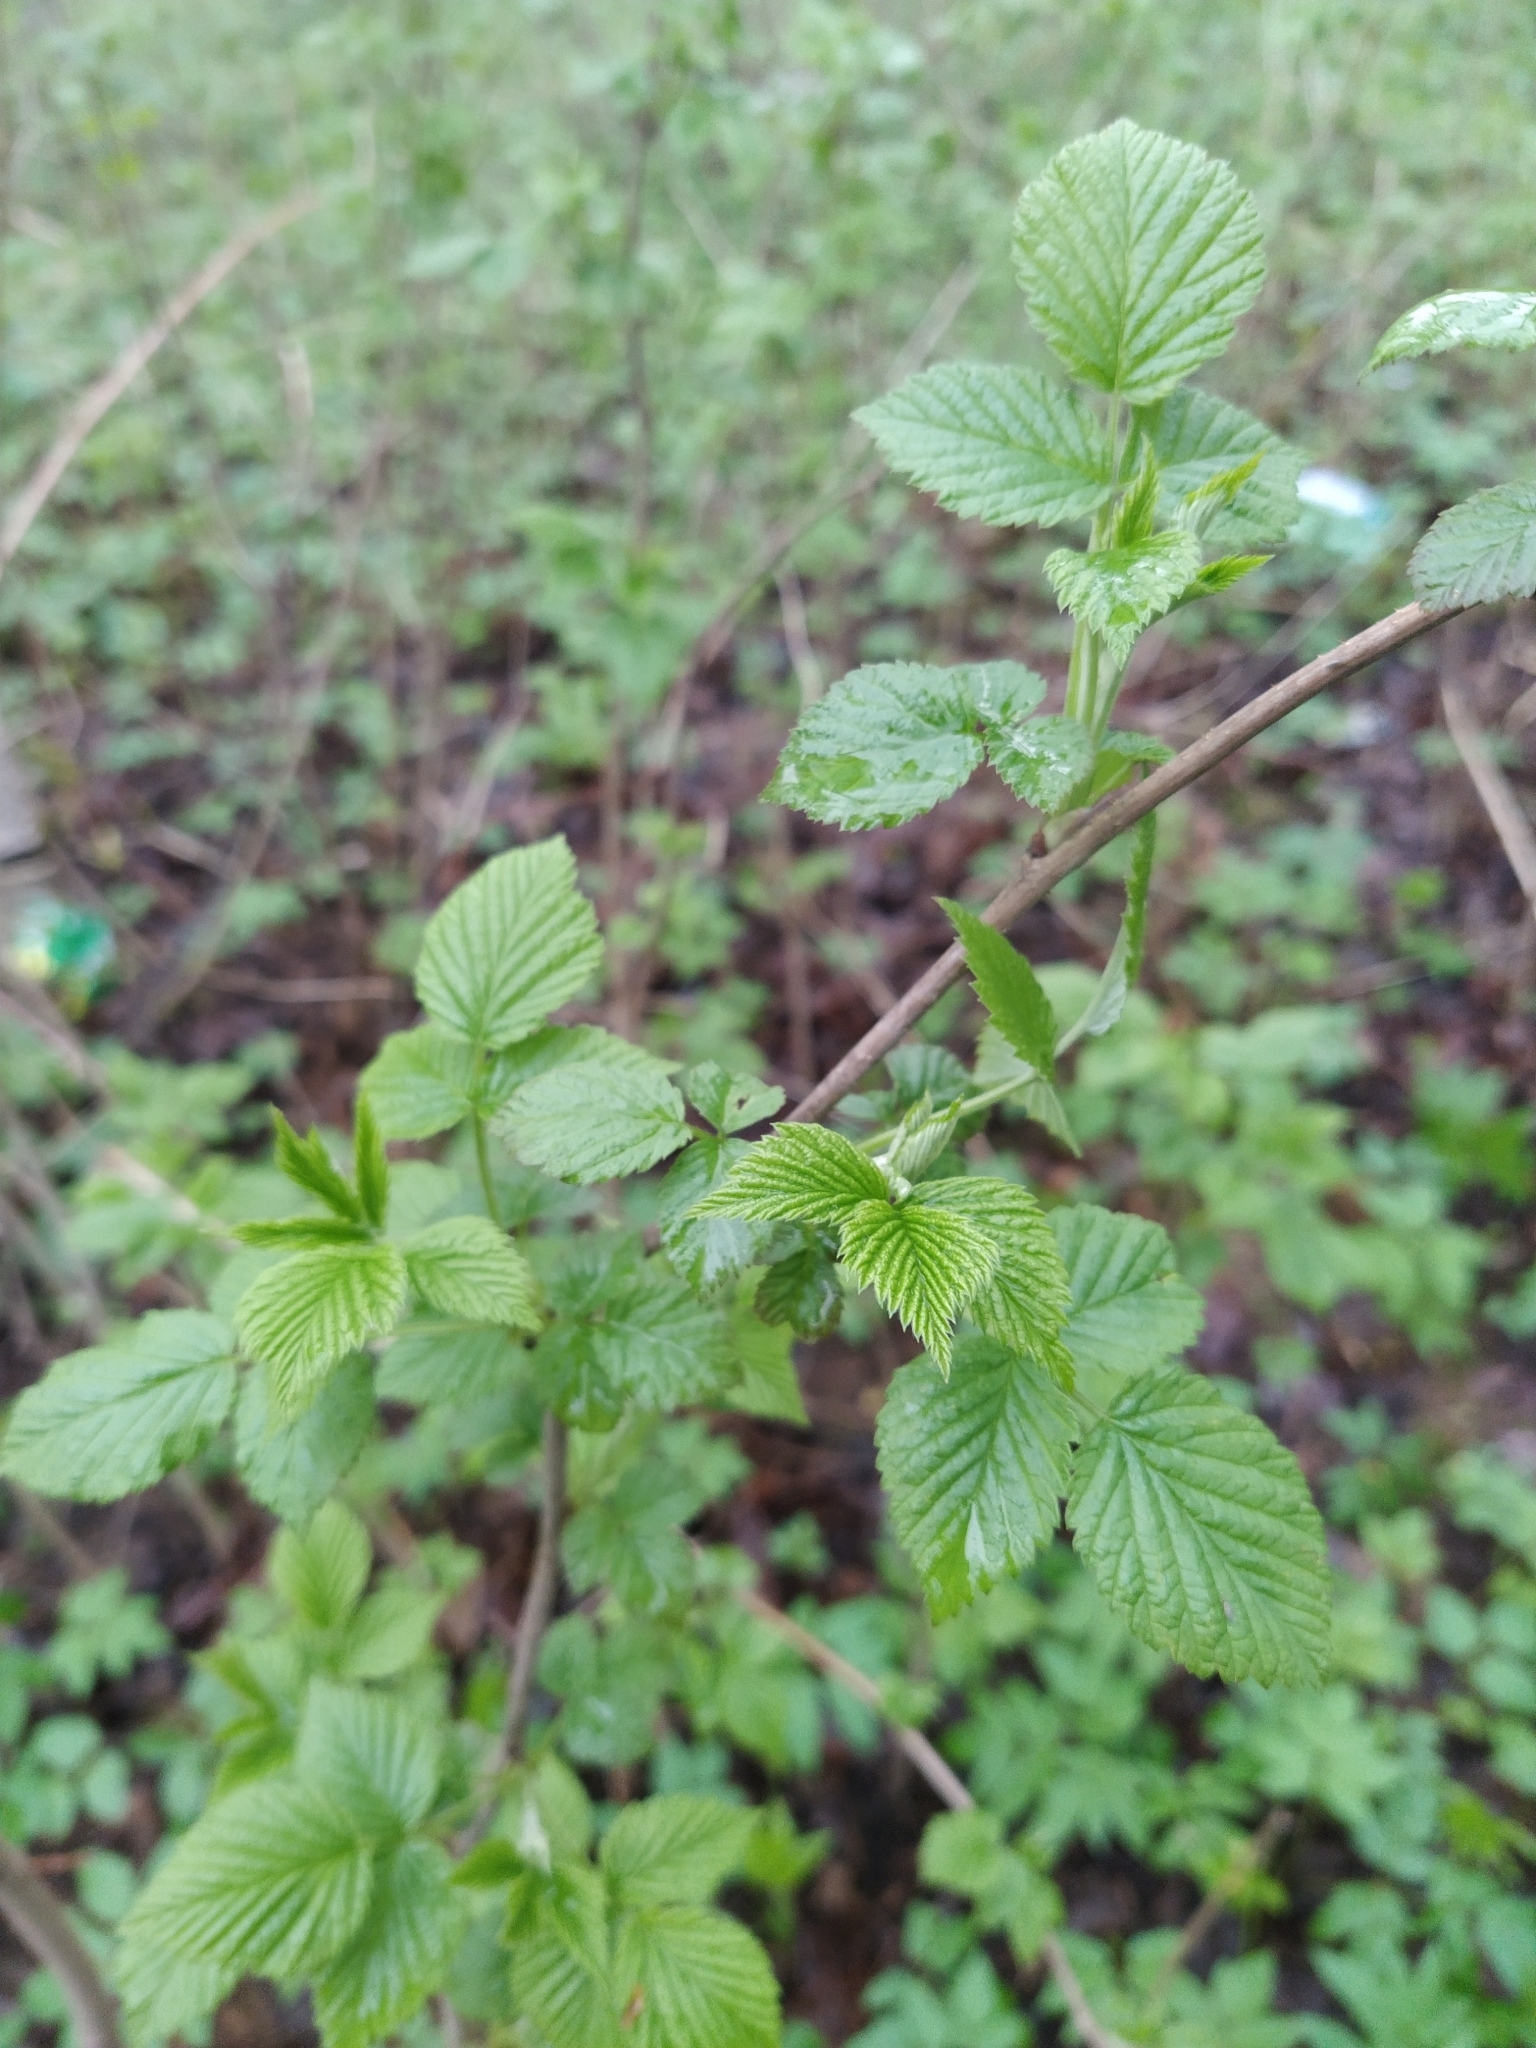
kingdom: Plantae
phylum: Tracheophyta
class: Magnoliopsida
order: Rosales
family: Rosaceae
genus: Rubus
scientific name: Rubus idaeus
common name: Raspberry
